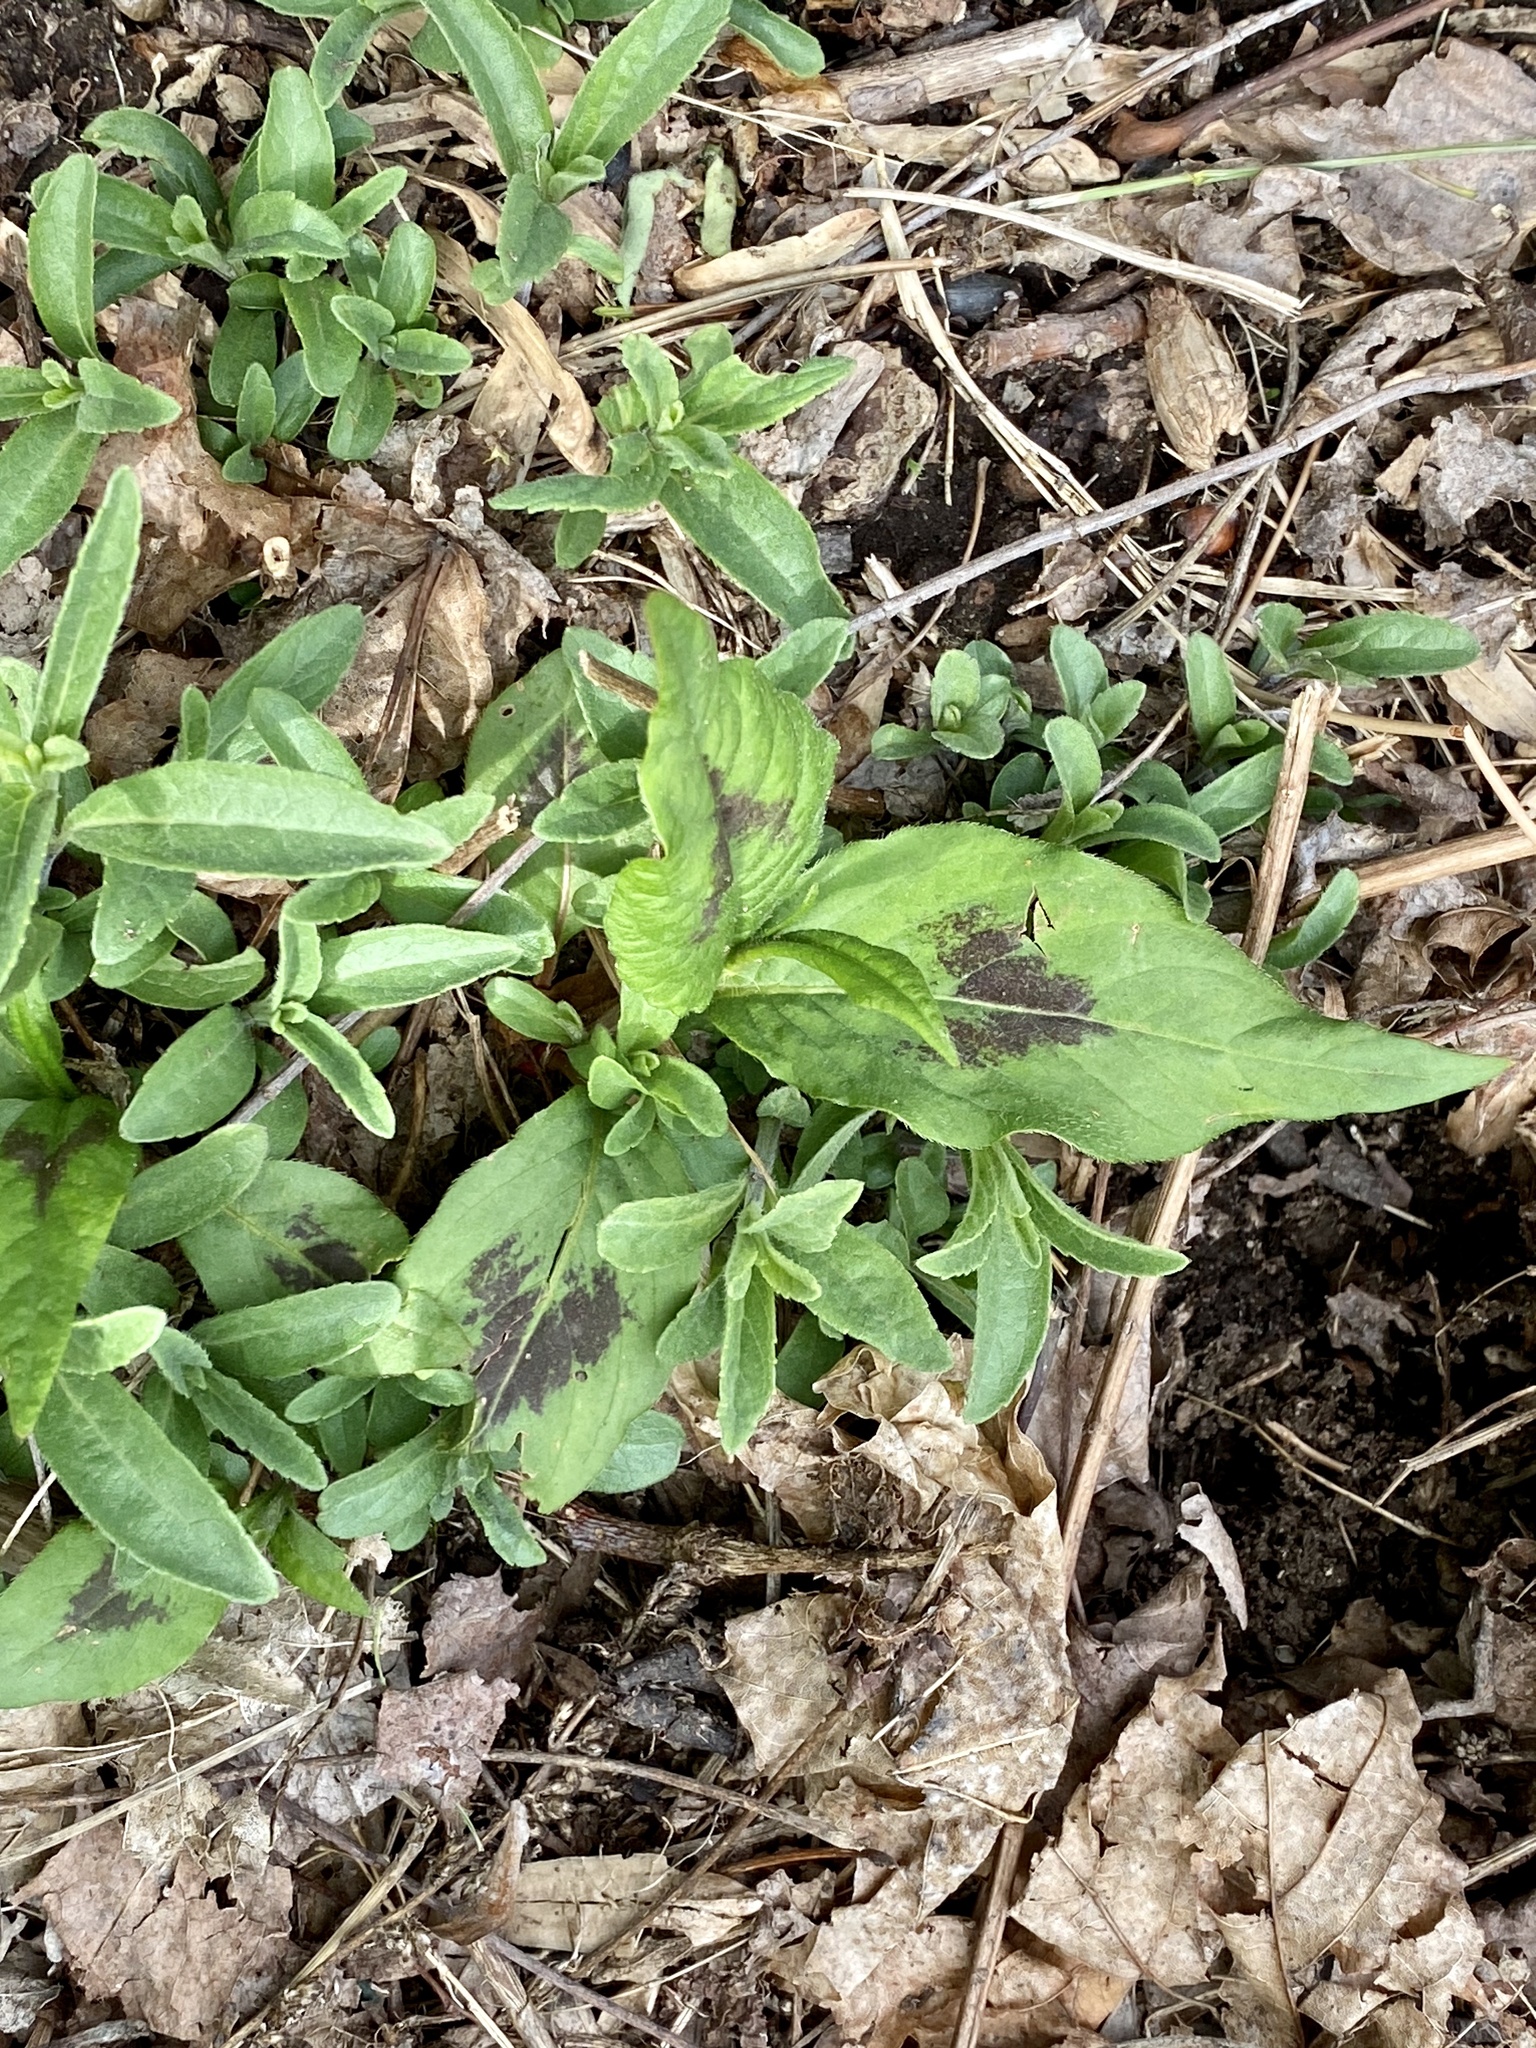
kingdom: Plantae
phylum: Tracheophyta
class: Magnoliopsida
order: Caryophyllales
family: Polygonaceae
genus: Persicaria
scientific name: Persicaria virginiana
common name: Jumpseed
